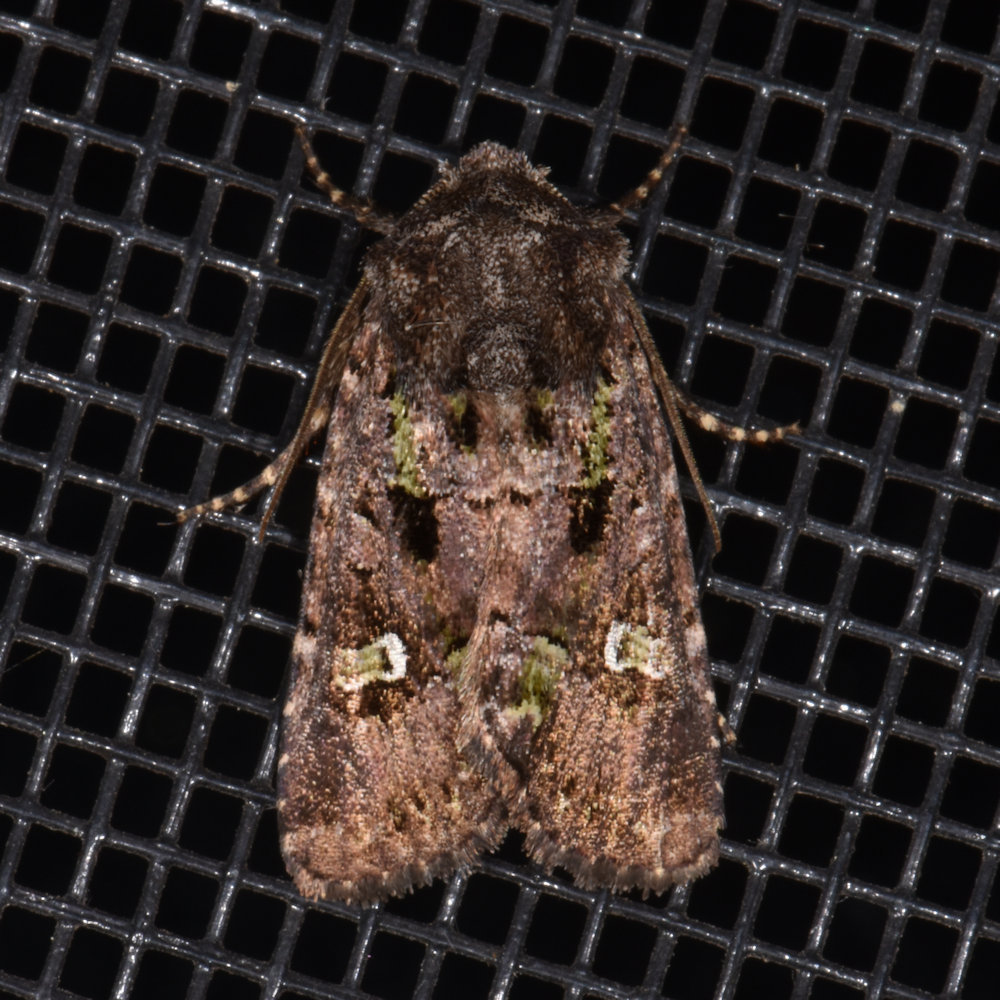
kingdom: Animalia
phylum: Arthropoda
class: Insecta
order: Lepidoptera
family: Noctuidae
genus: Lacinipolia
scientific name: Lacinipolia renigera
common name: Kidney-spotted minor
